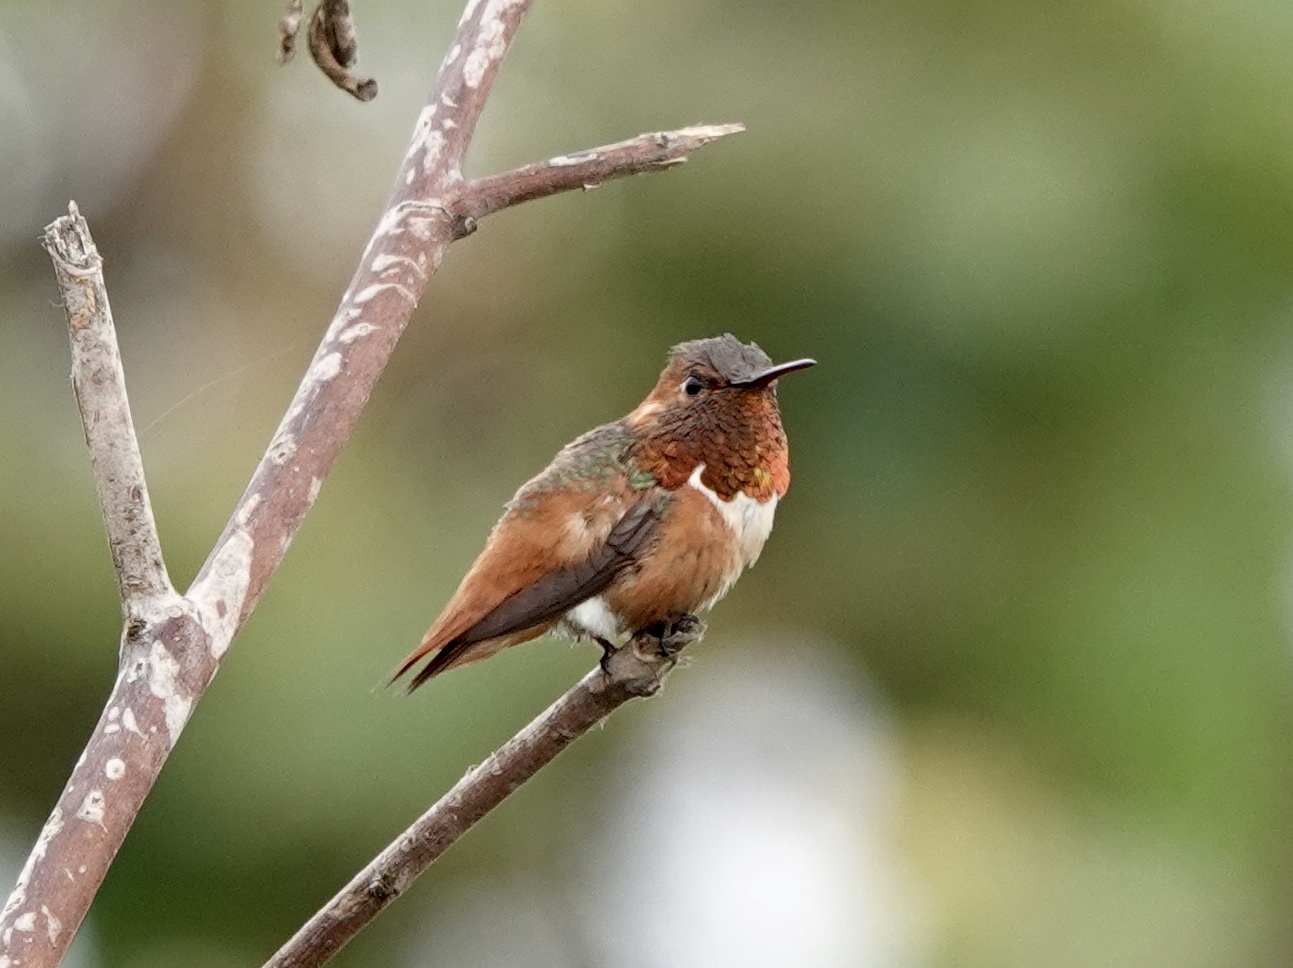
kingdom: Animalia
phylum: Chordata
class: Aves
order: Apodiformes
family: Trochilidae
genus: Selasphorus
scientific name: Selasphorus sasin
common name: Allen's hummingbird
